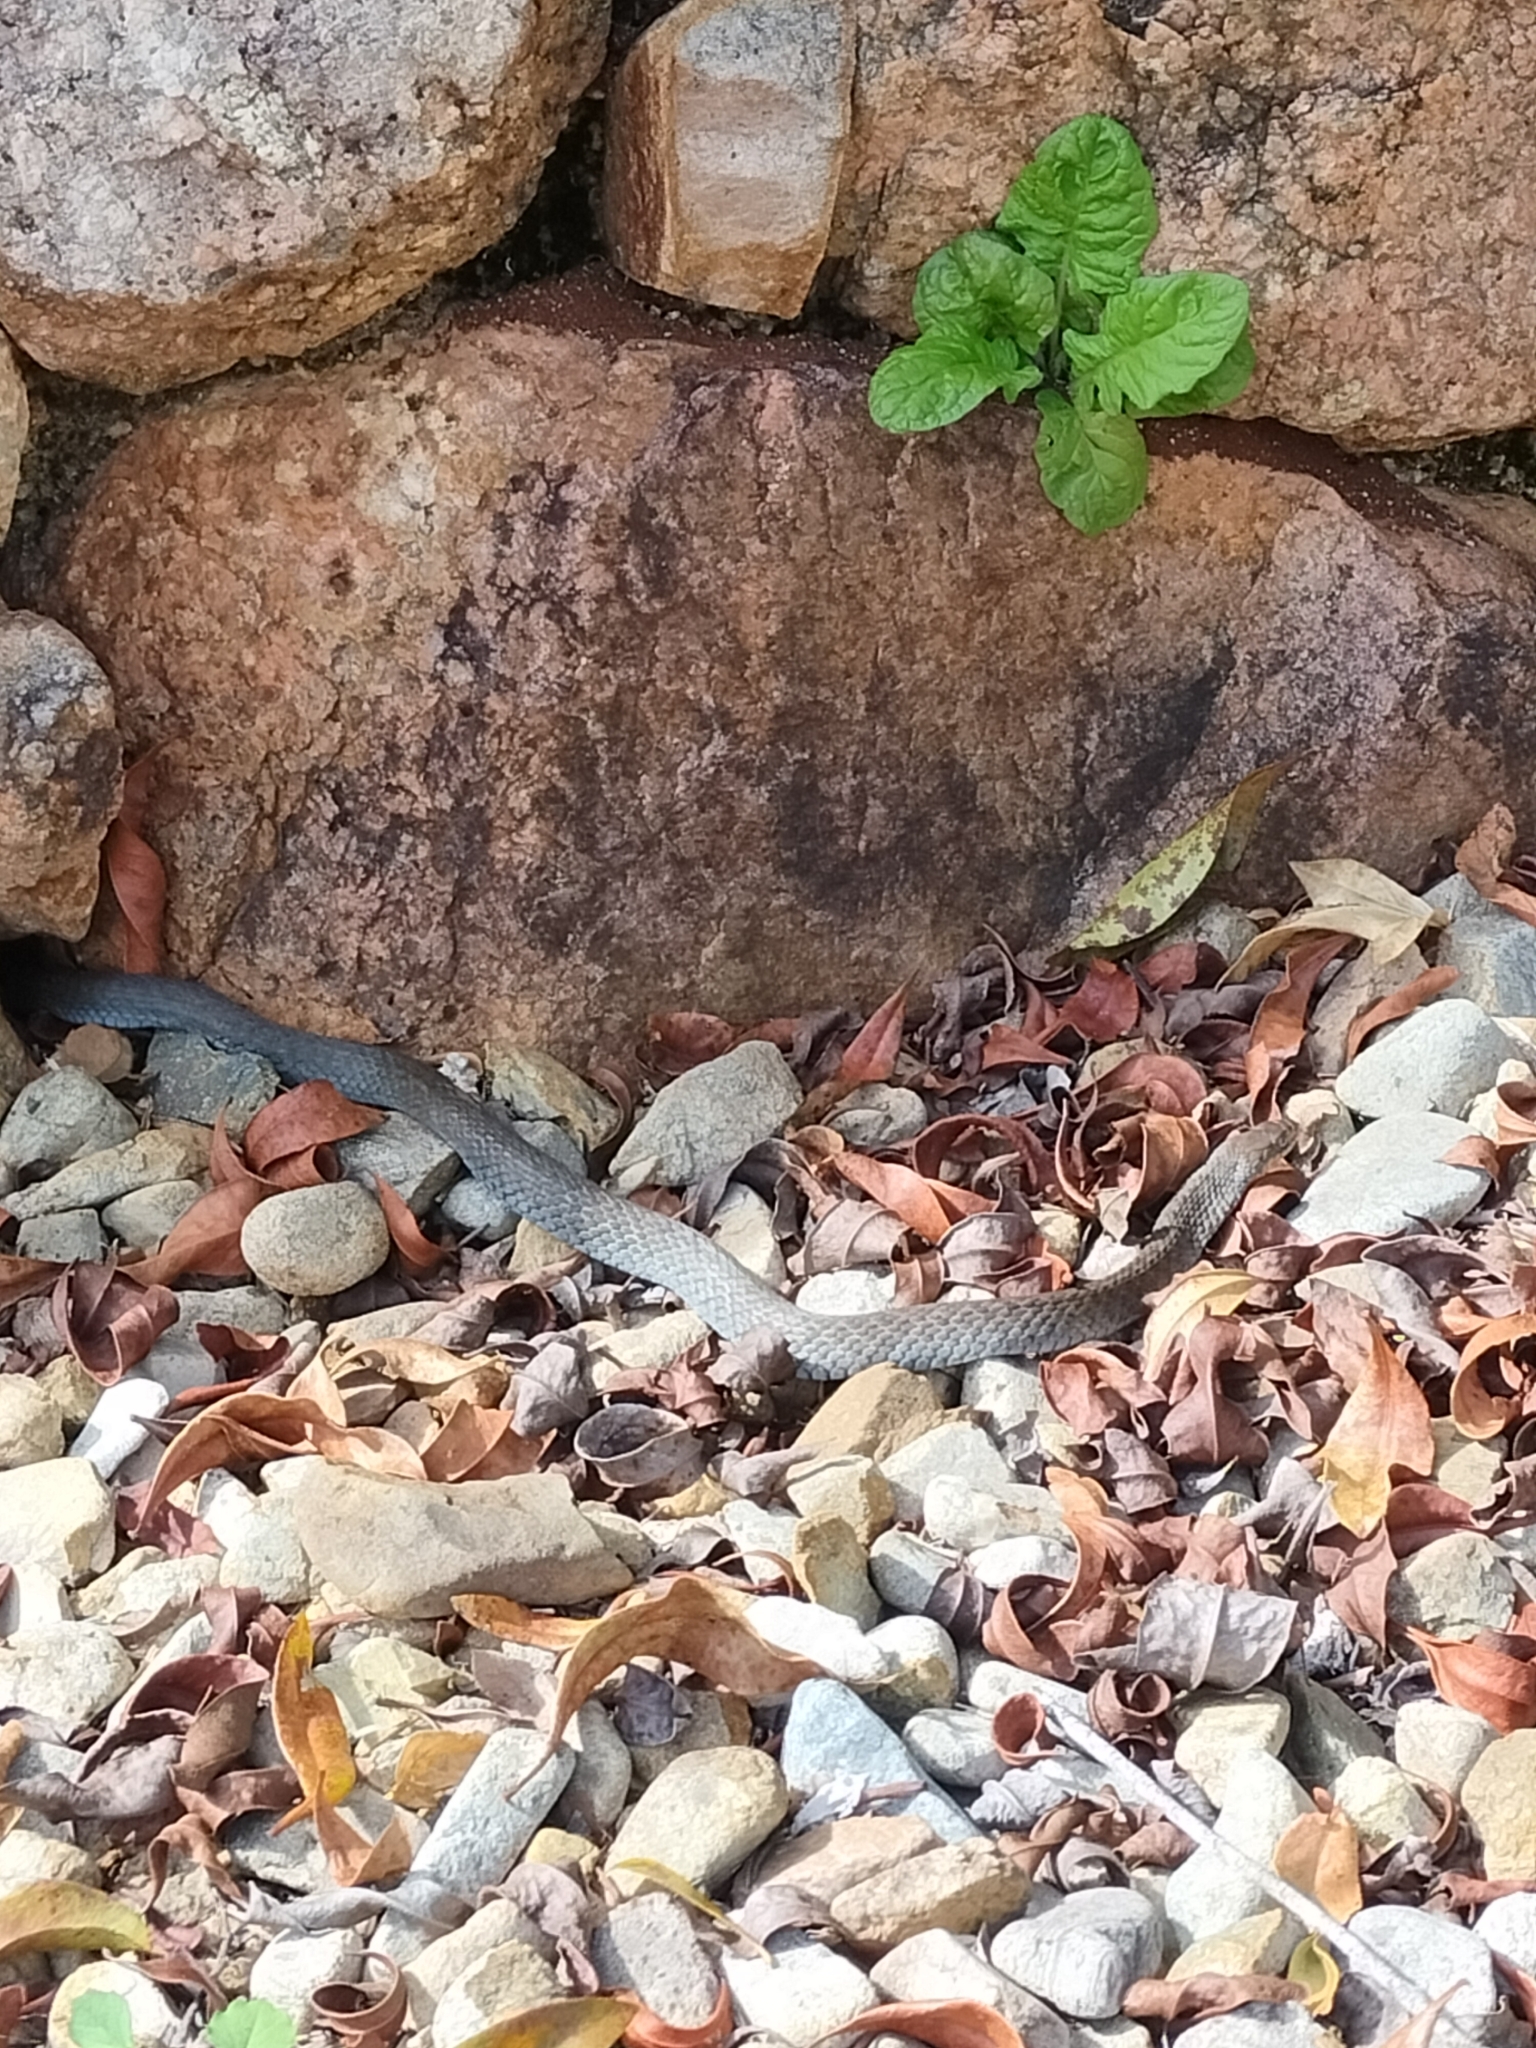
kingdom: Animalia
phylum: Chordata
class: Squamata
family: Colubridae
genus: Tropidonophis
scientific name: Tropidonophis mairii
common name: Common keelback
